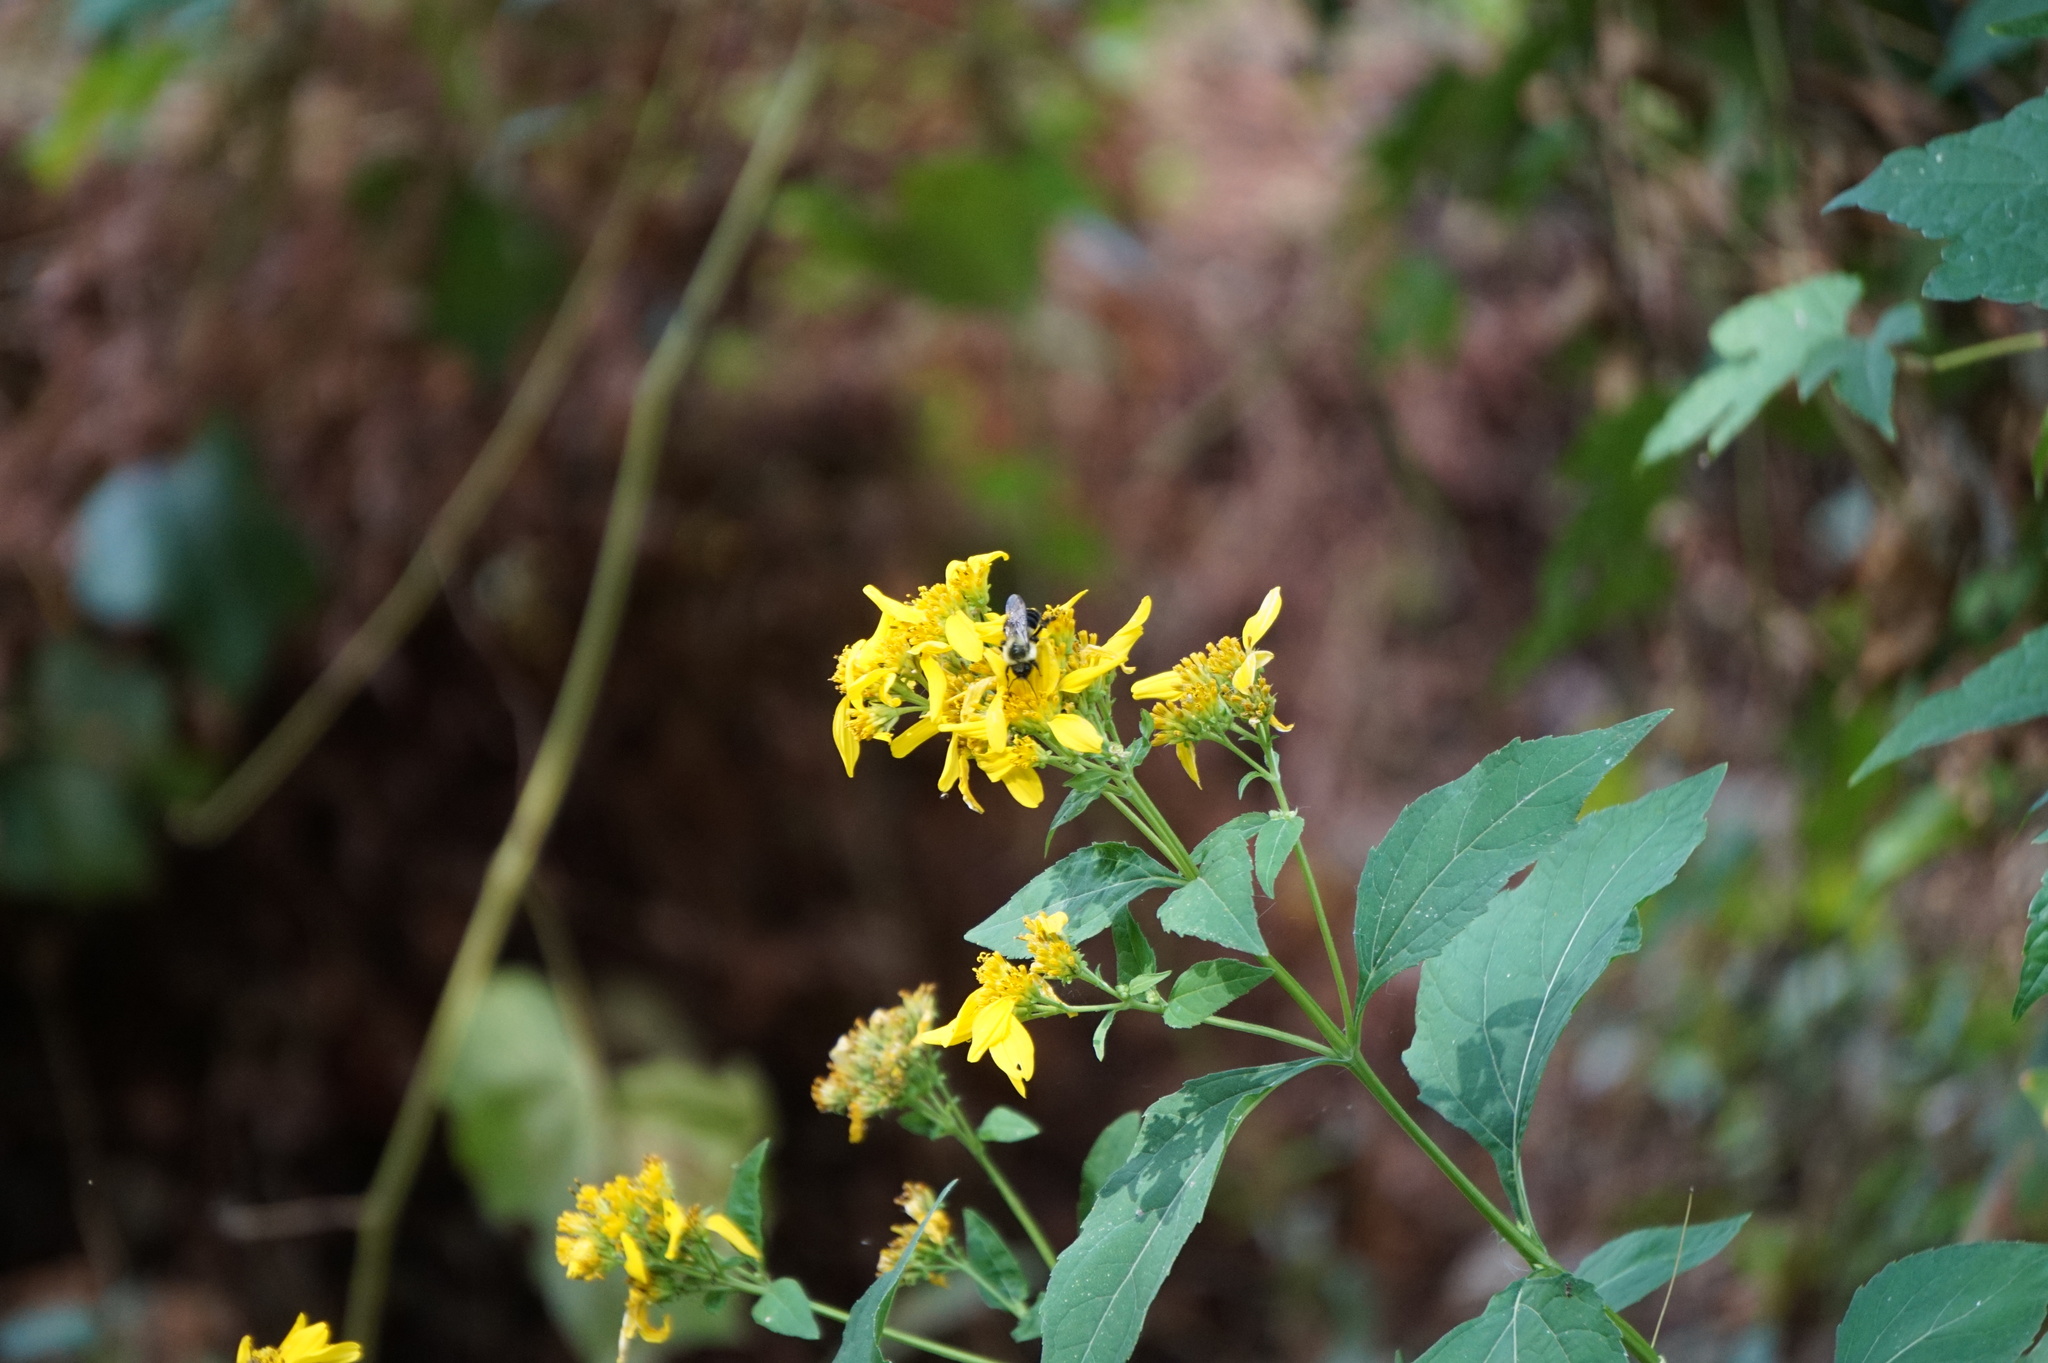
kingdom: Plantae
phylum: Tracheophyta
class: Magnoliopsida
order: Asterales
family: Asteraceae
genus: Verbesina
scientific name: Verbesina occidentalis
